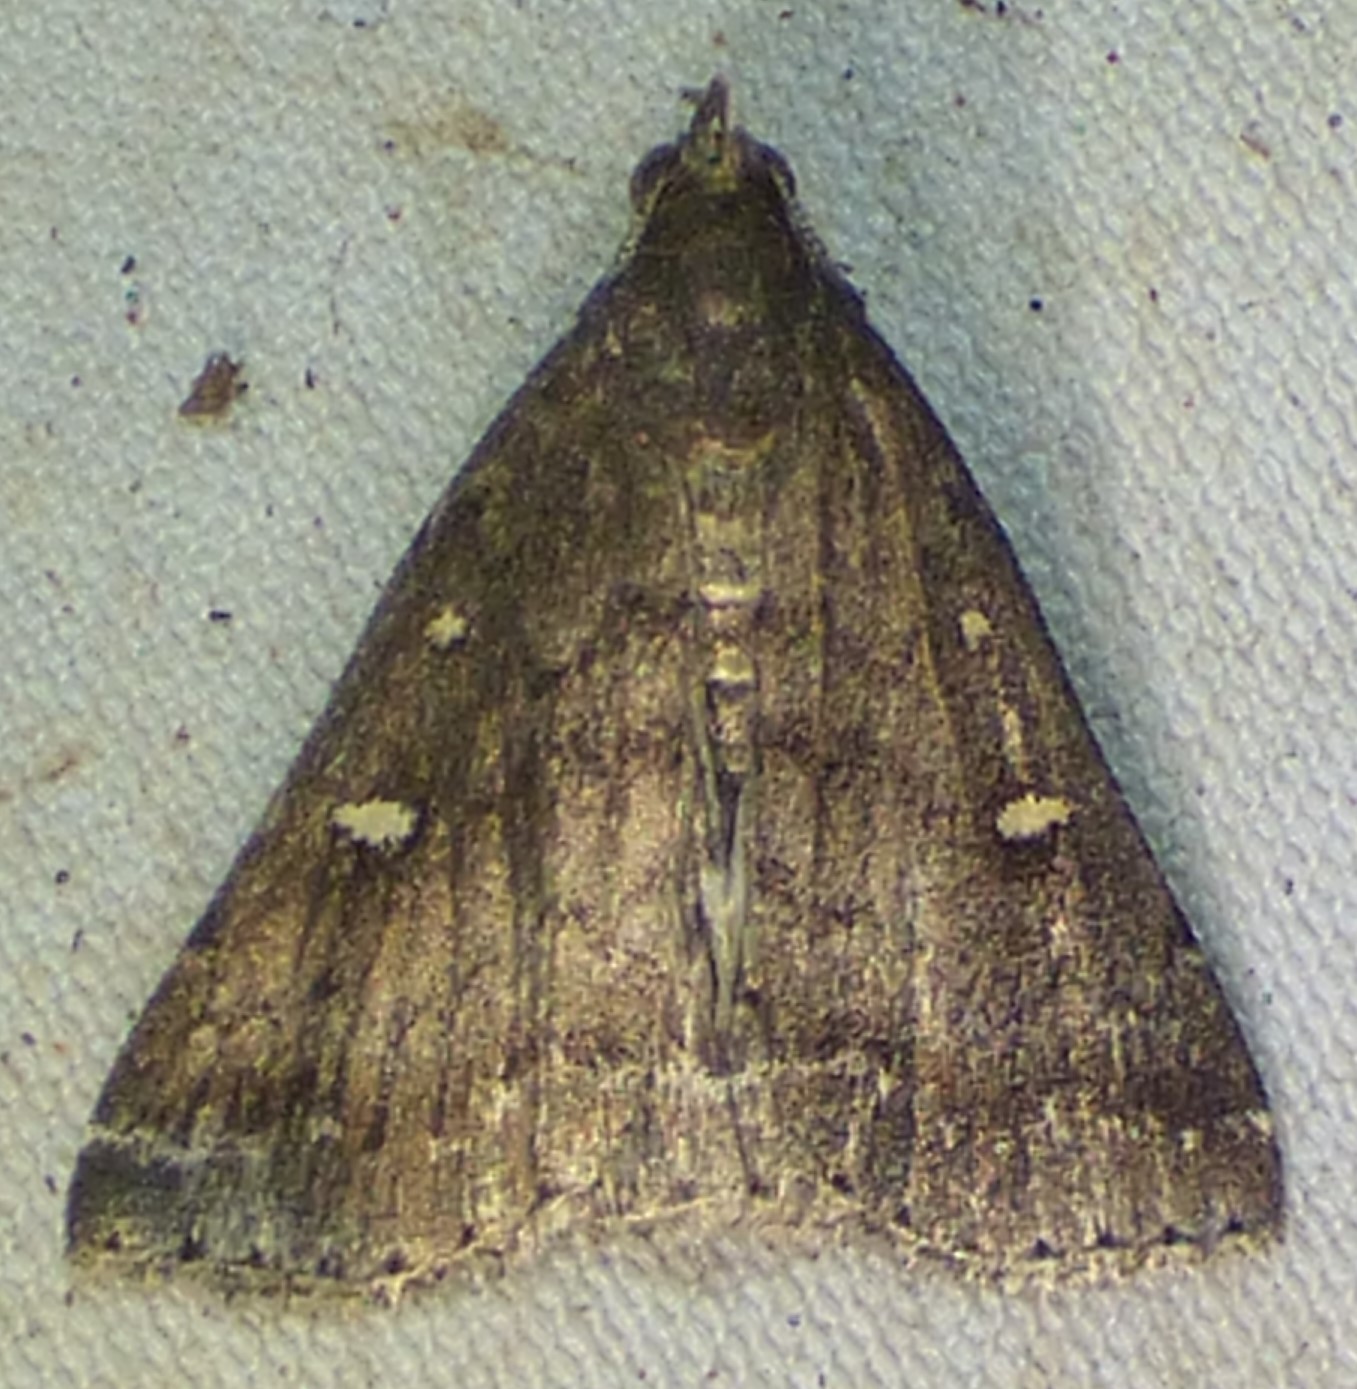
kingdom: Animalia
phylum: Arthropoda
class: Insecta
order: Lepidoptera
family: Erebidae
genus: Tetanolita
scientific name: Tetanolita mynesalis
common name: Smoky tetanolita moth
